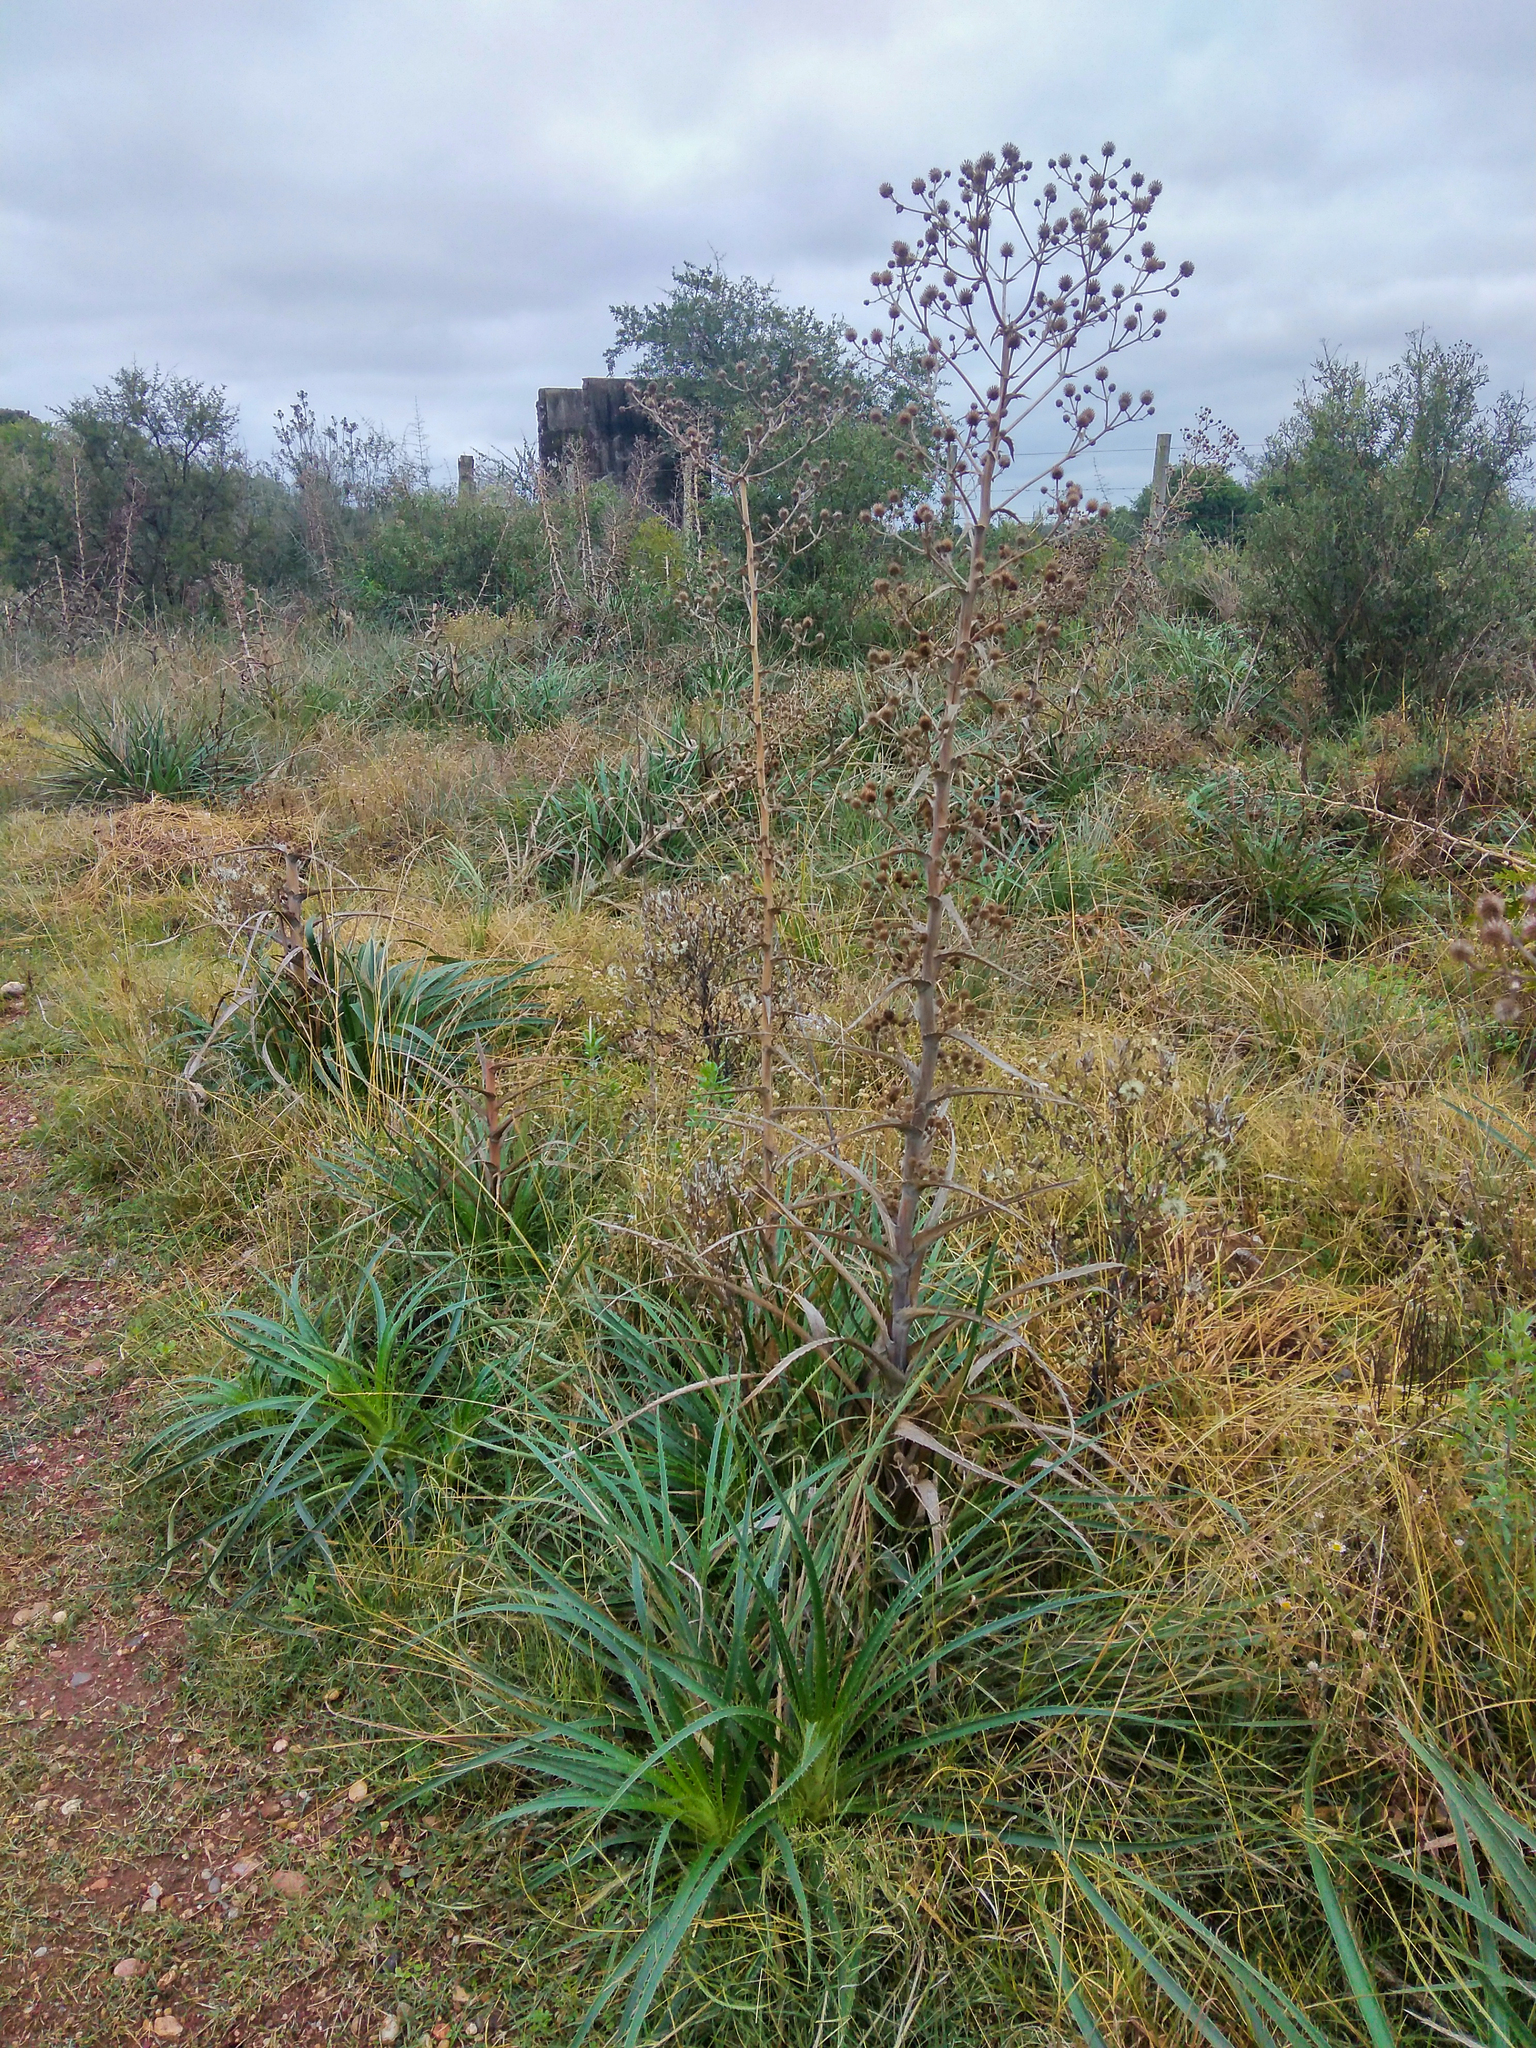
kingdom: Plantae
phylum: Tracheophyta
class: Magnoliopsida
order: Apiales
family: Apiaceae
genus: Eryngium
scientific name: Eryngium horridum
